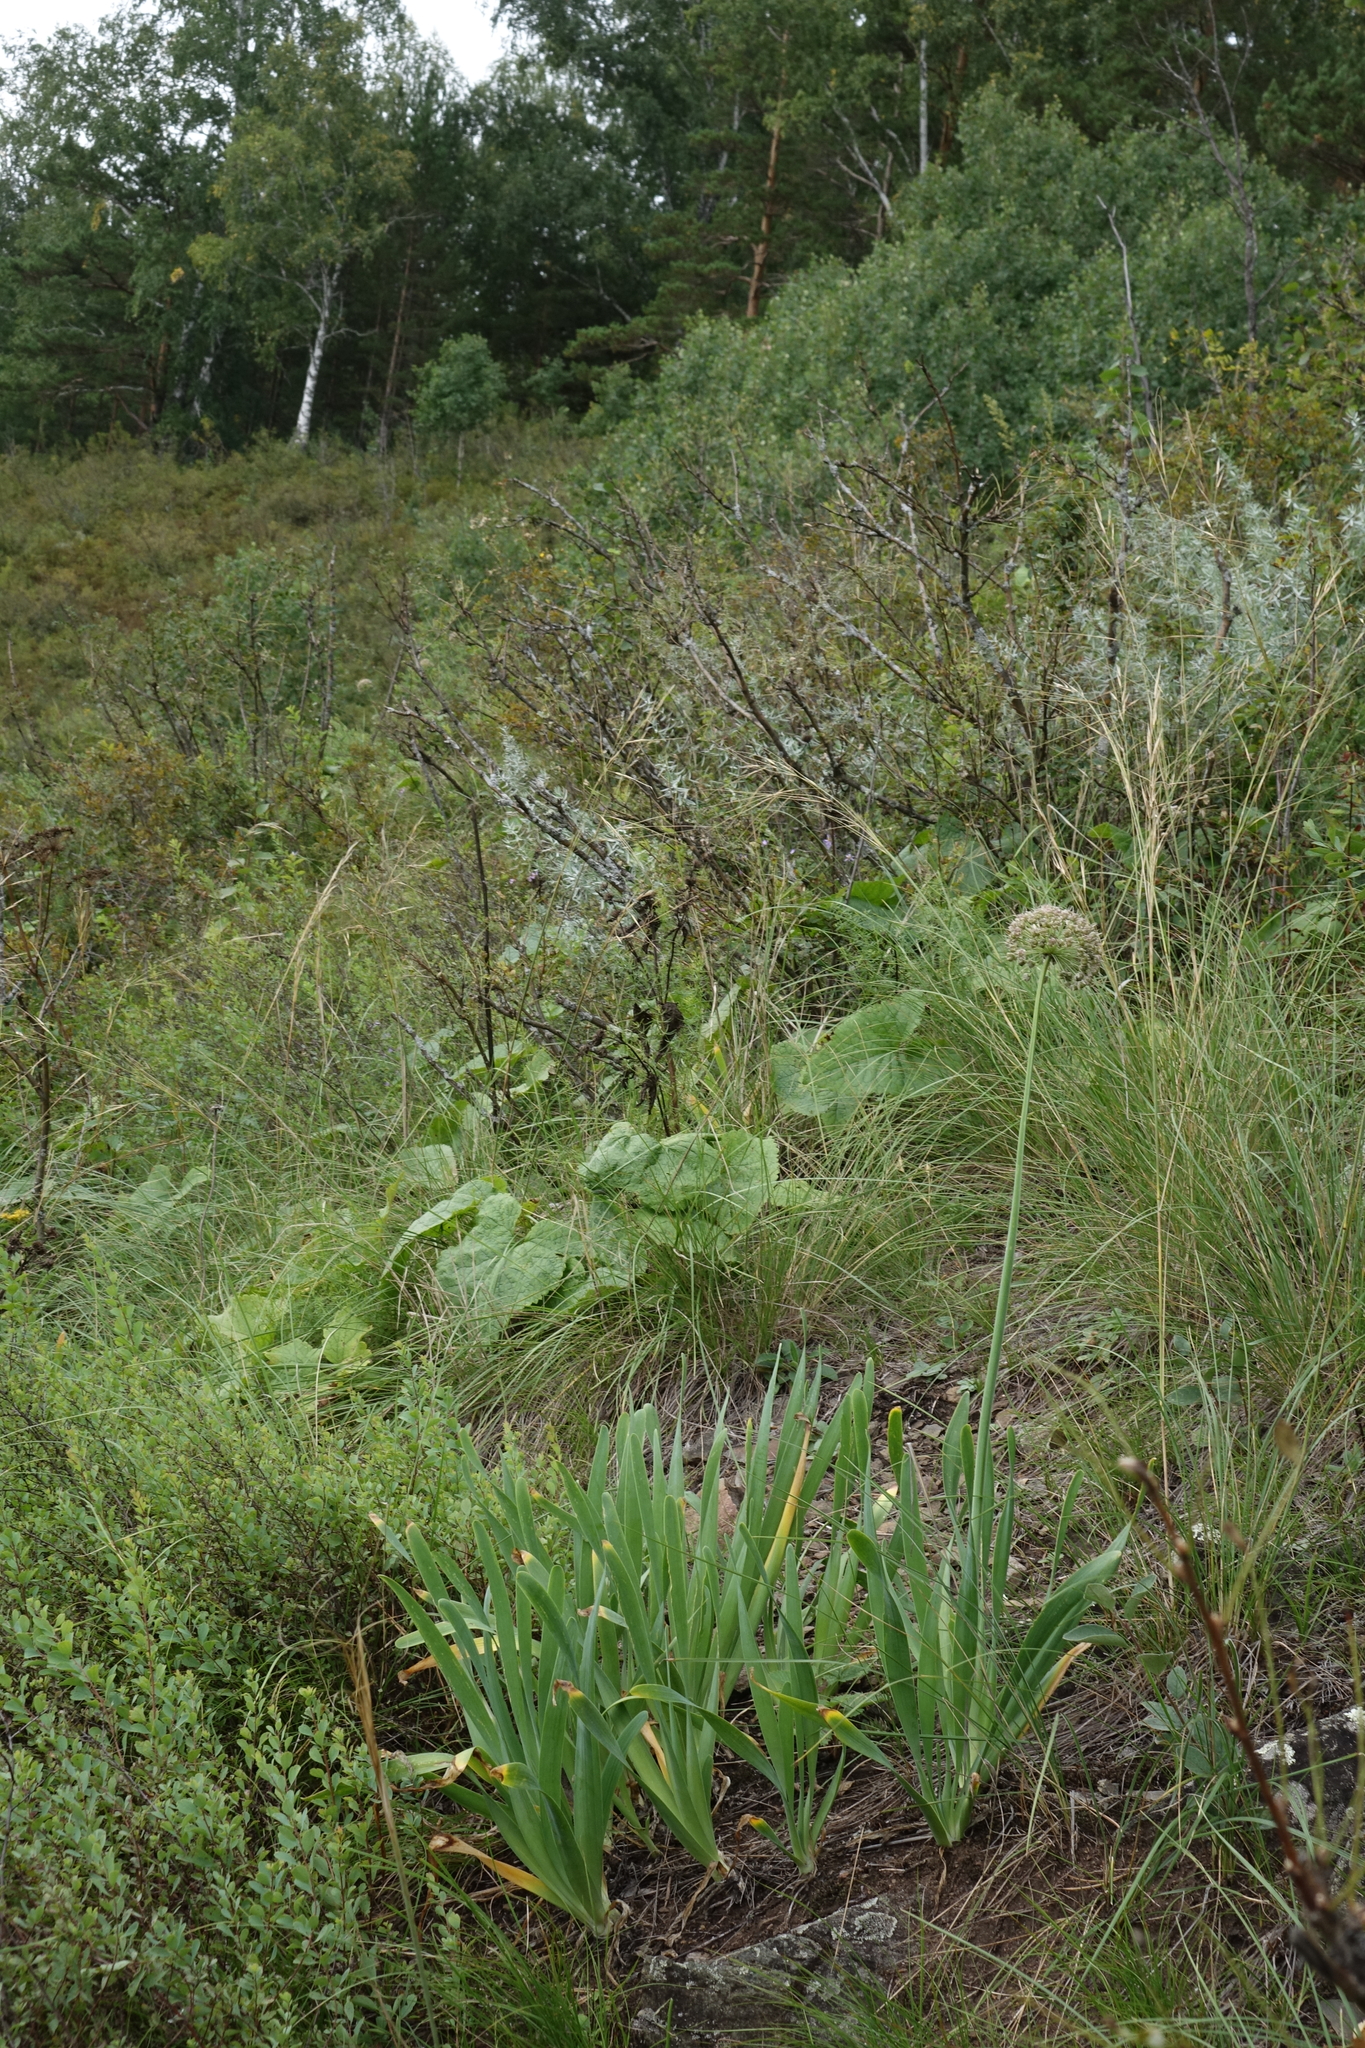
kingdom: Plantae
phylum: Tracheophyta
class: Liliopsida
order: Asparagales
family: Amaryllidaceae
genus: Allium
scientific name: Allium nutans
